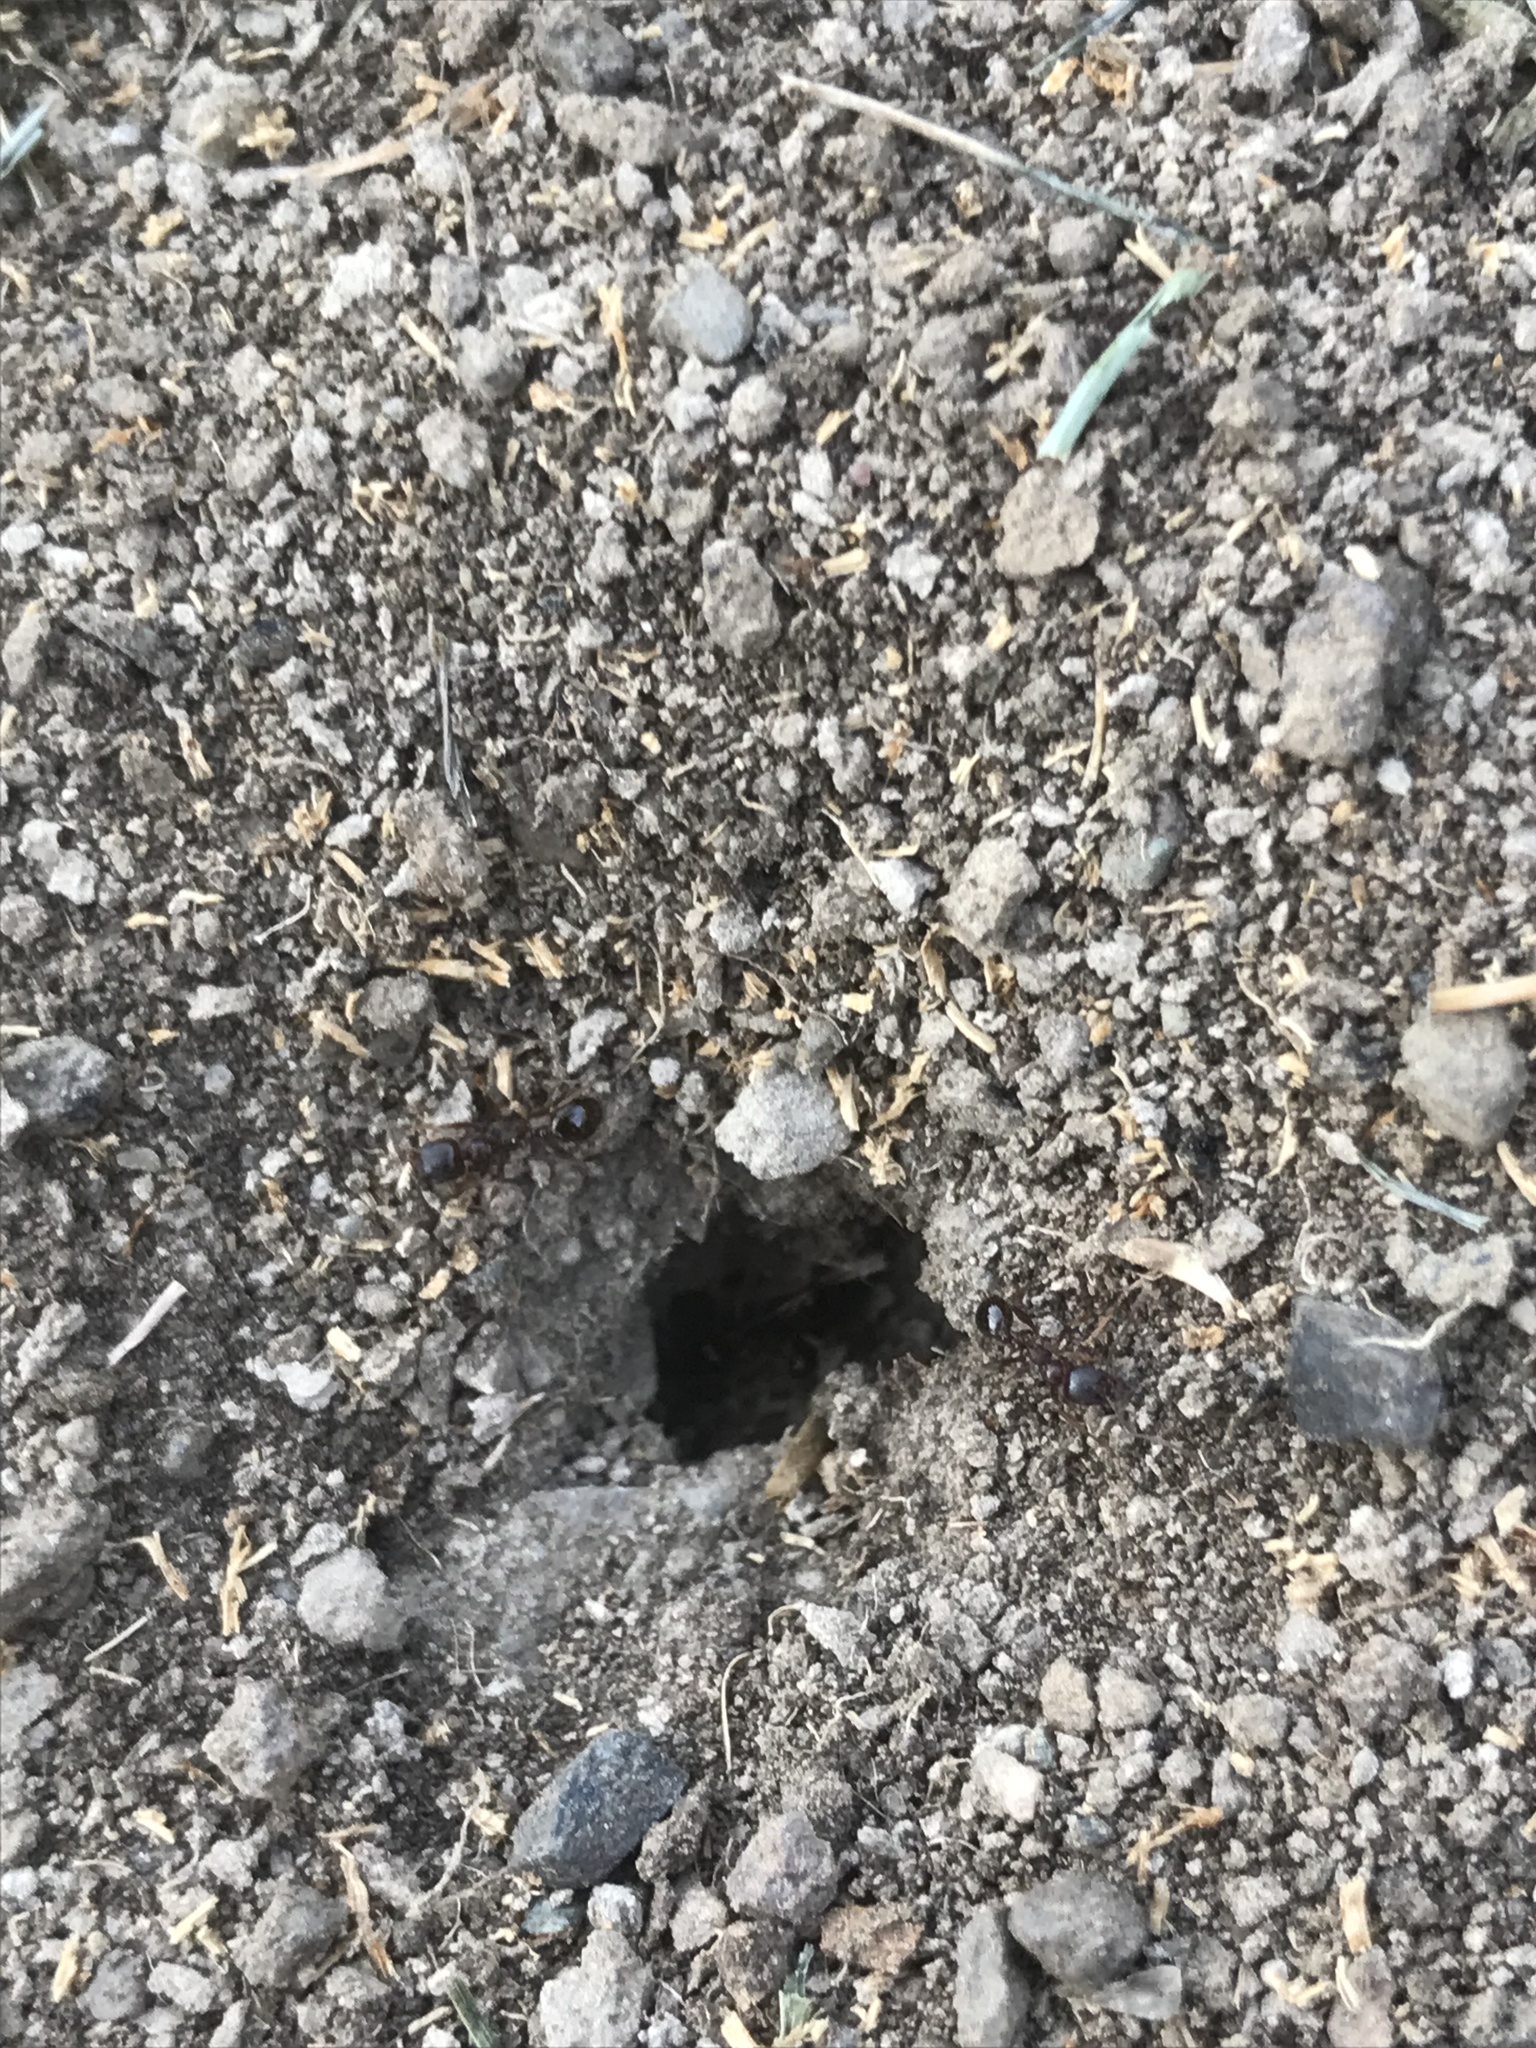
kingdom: Animalia
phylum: Arthropoda
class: Insecta
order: Hymenoptera
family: Formicidae
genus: Aphaenogaster
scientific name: Aphaenogaster occidentalis
